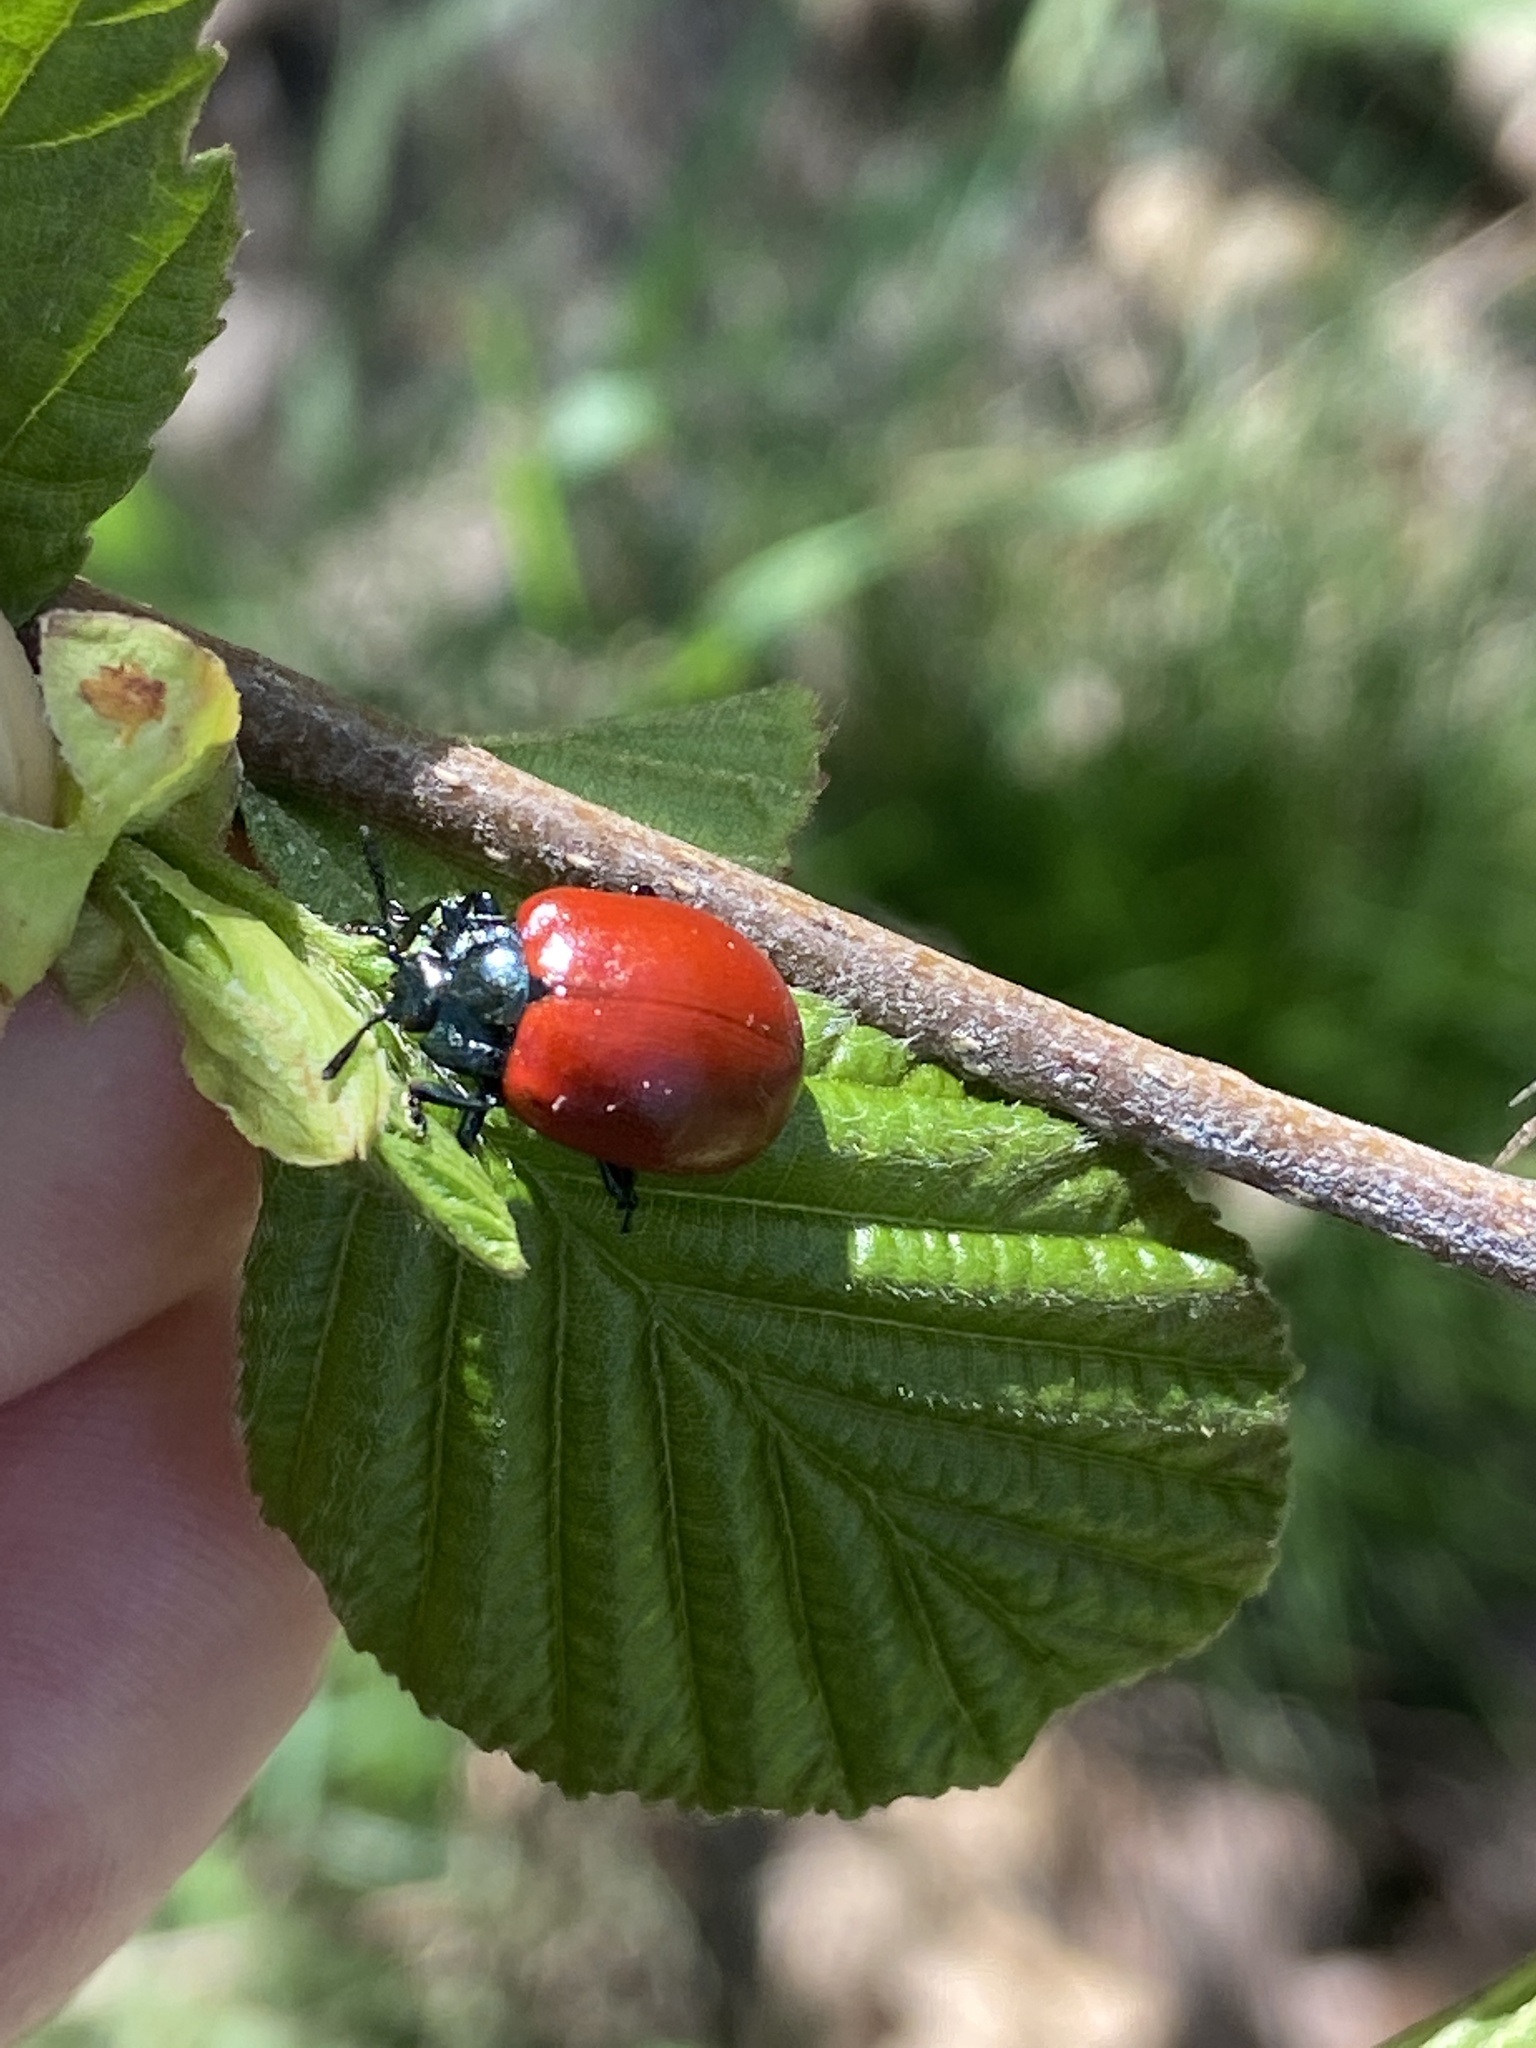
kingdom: Animalia
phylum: Arthropoda
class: Insecta
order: Coleoptera
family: Chrysomelidae
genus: Chrysomela
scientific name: Chrysomela populi
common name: Red poplar leaf beetle
